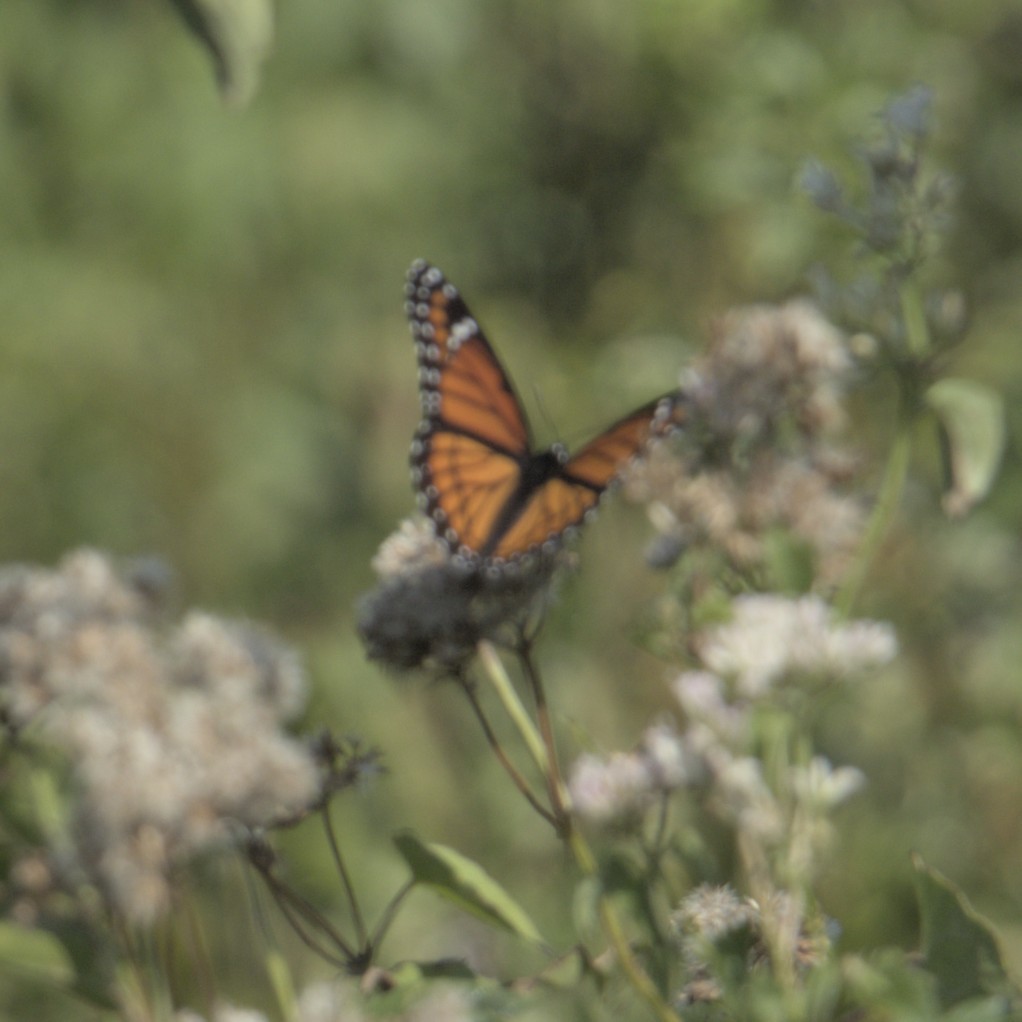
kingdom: Animalia
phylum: Arthropoda
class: Insecta
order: Lepidoptera
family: Nymphalidae
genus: Limenitis
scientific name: Limenitis archippus
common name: Viceroy
